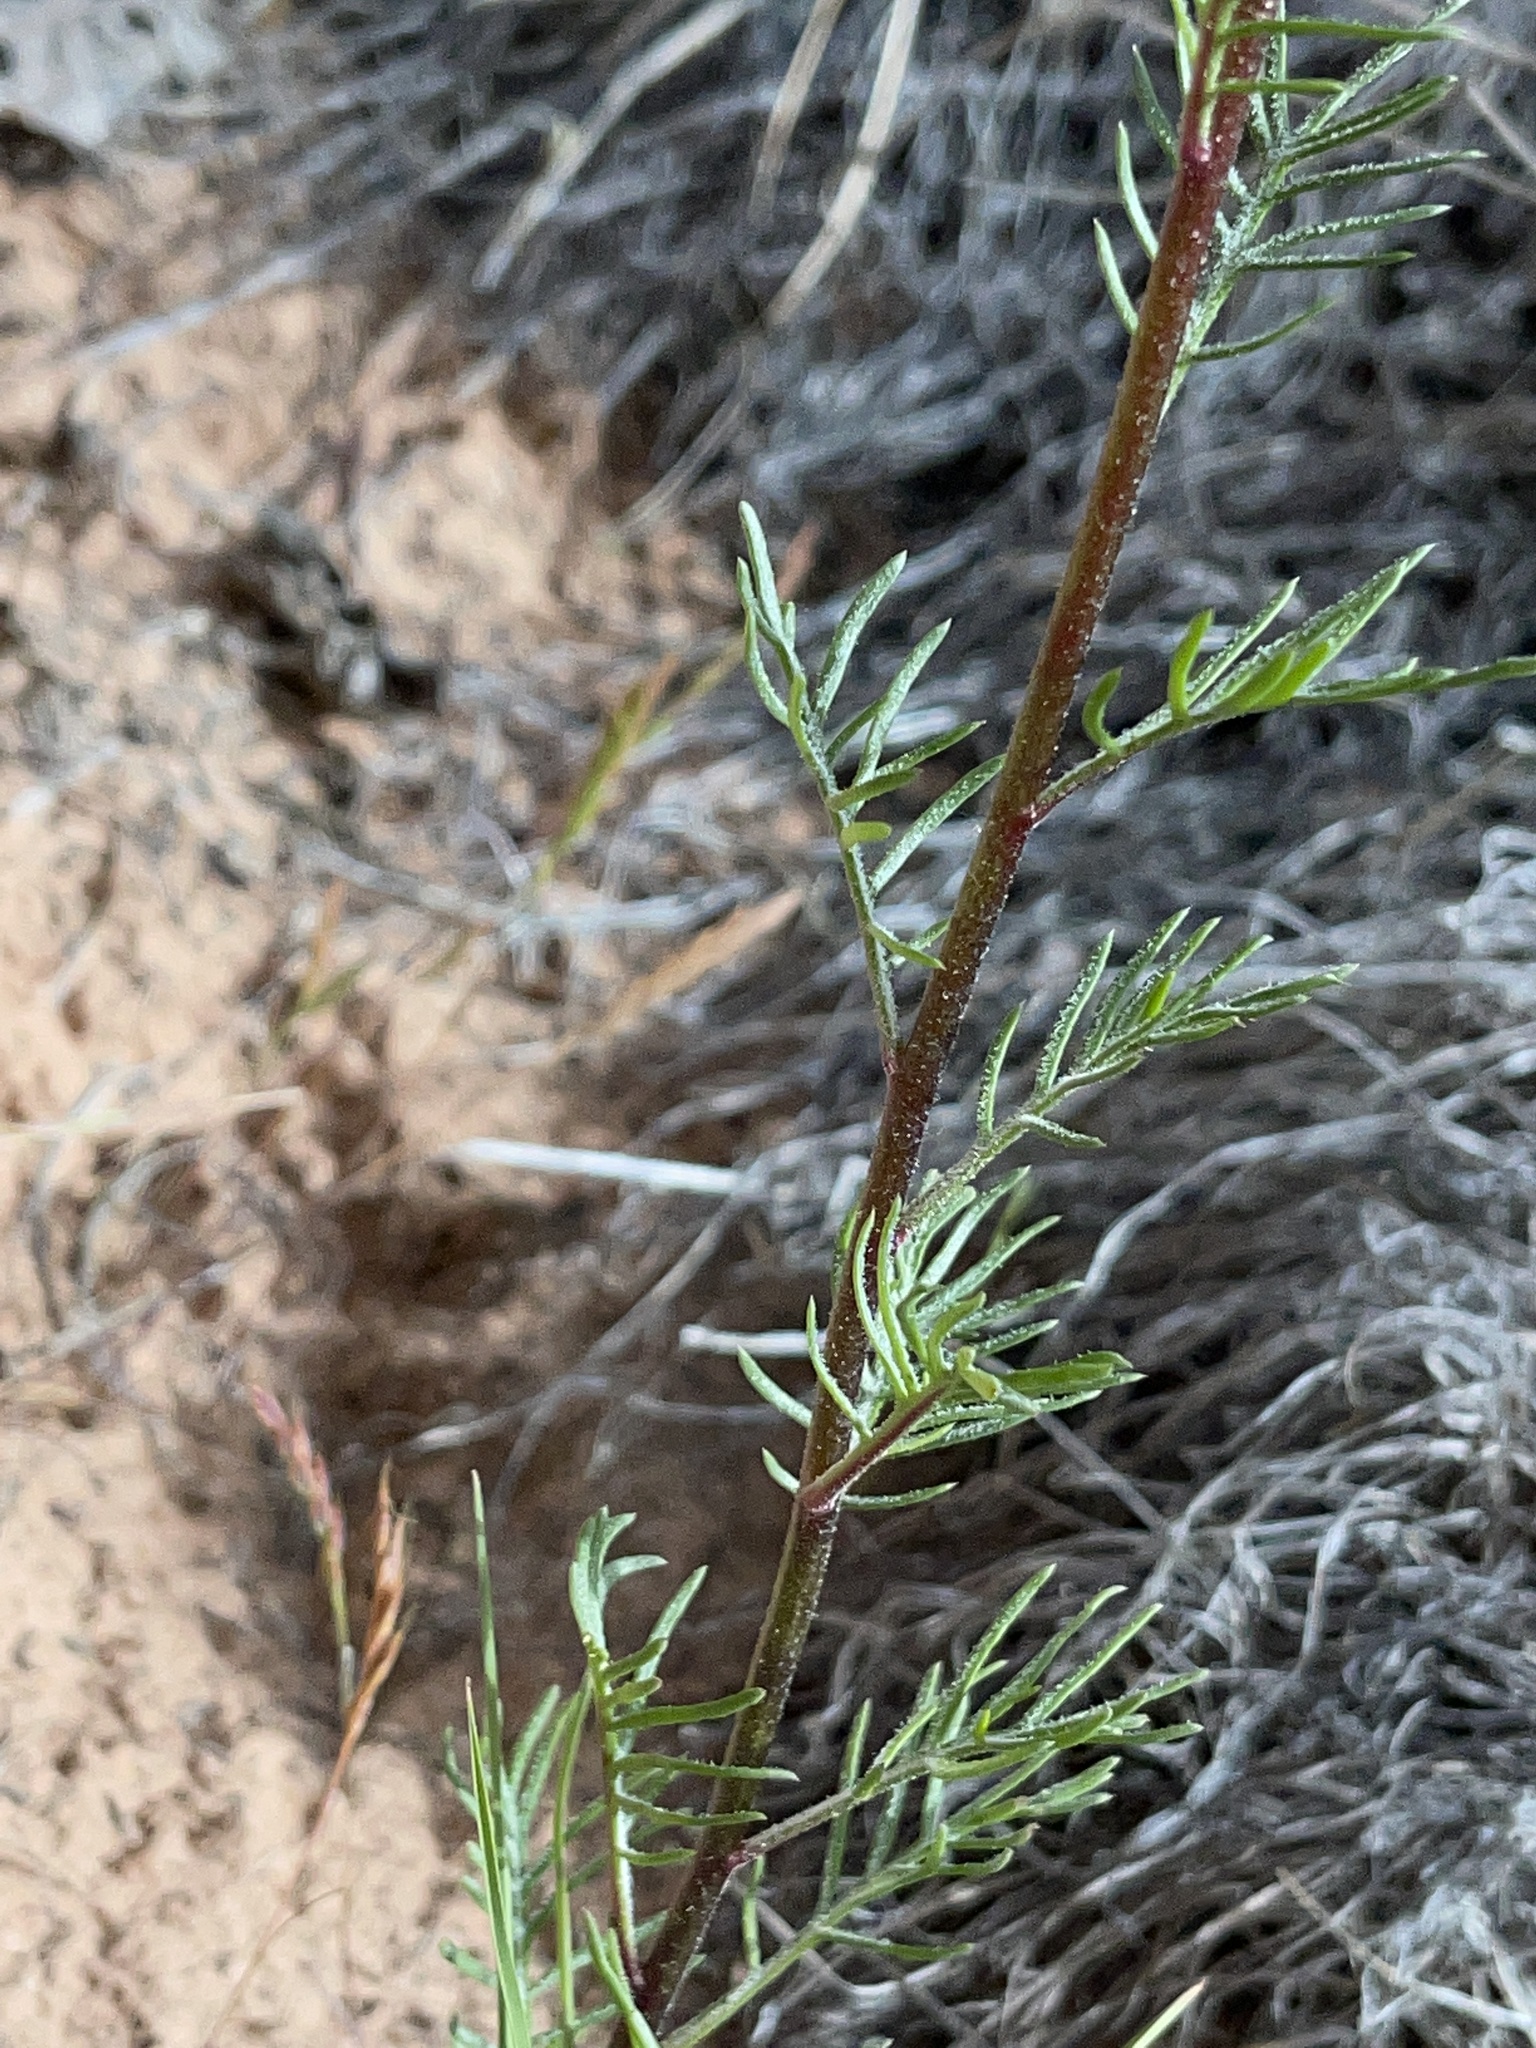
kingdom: Plantae
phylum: Tracheophyta
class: Magnoliopsida
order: Ericales
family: Polemoniaceae
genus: Ipomopsis
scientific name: Ipomopsis aggregata
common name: Scarlet gilia
